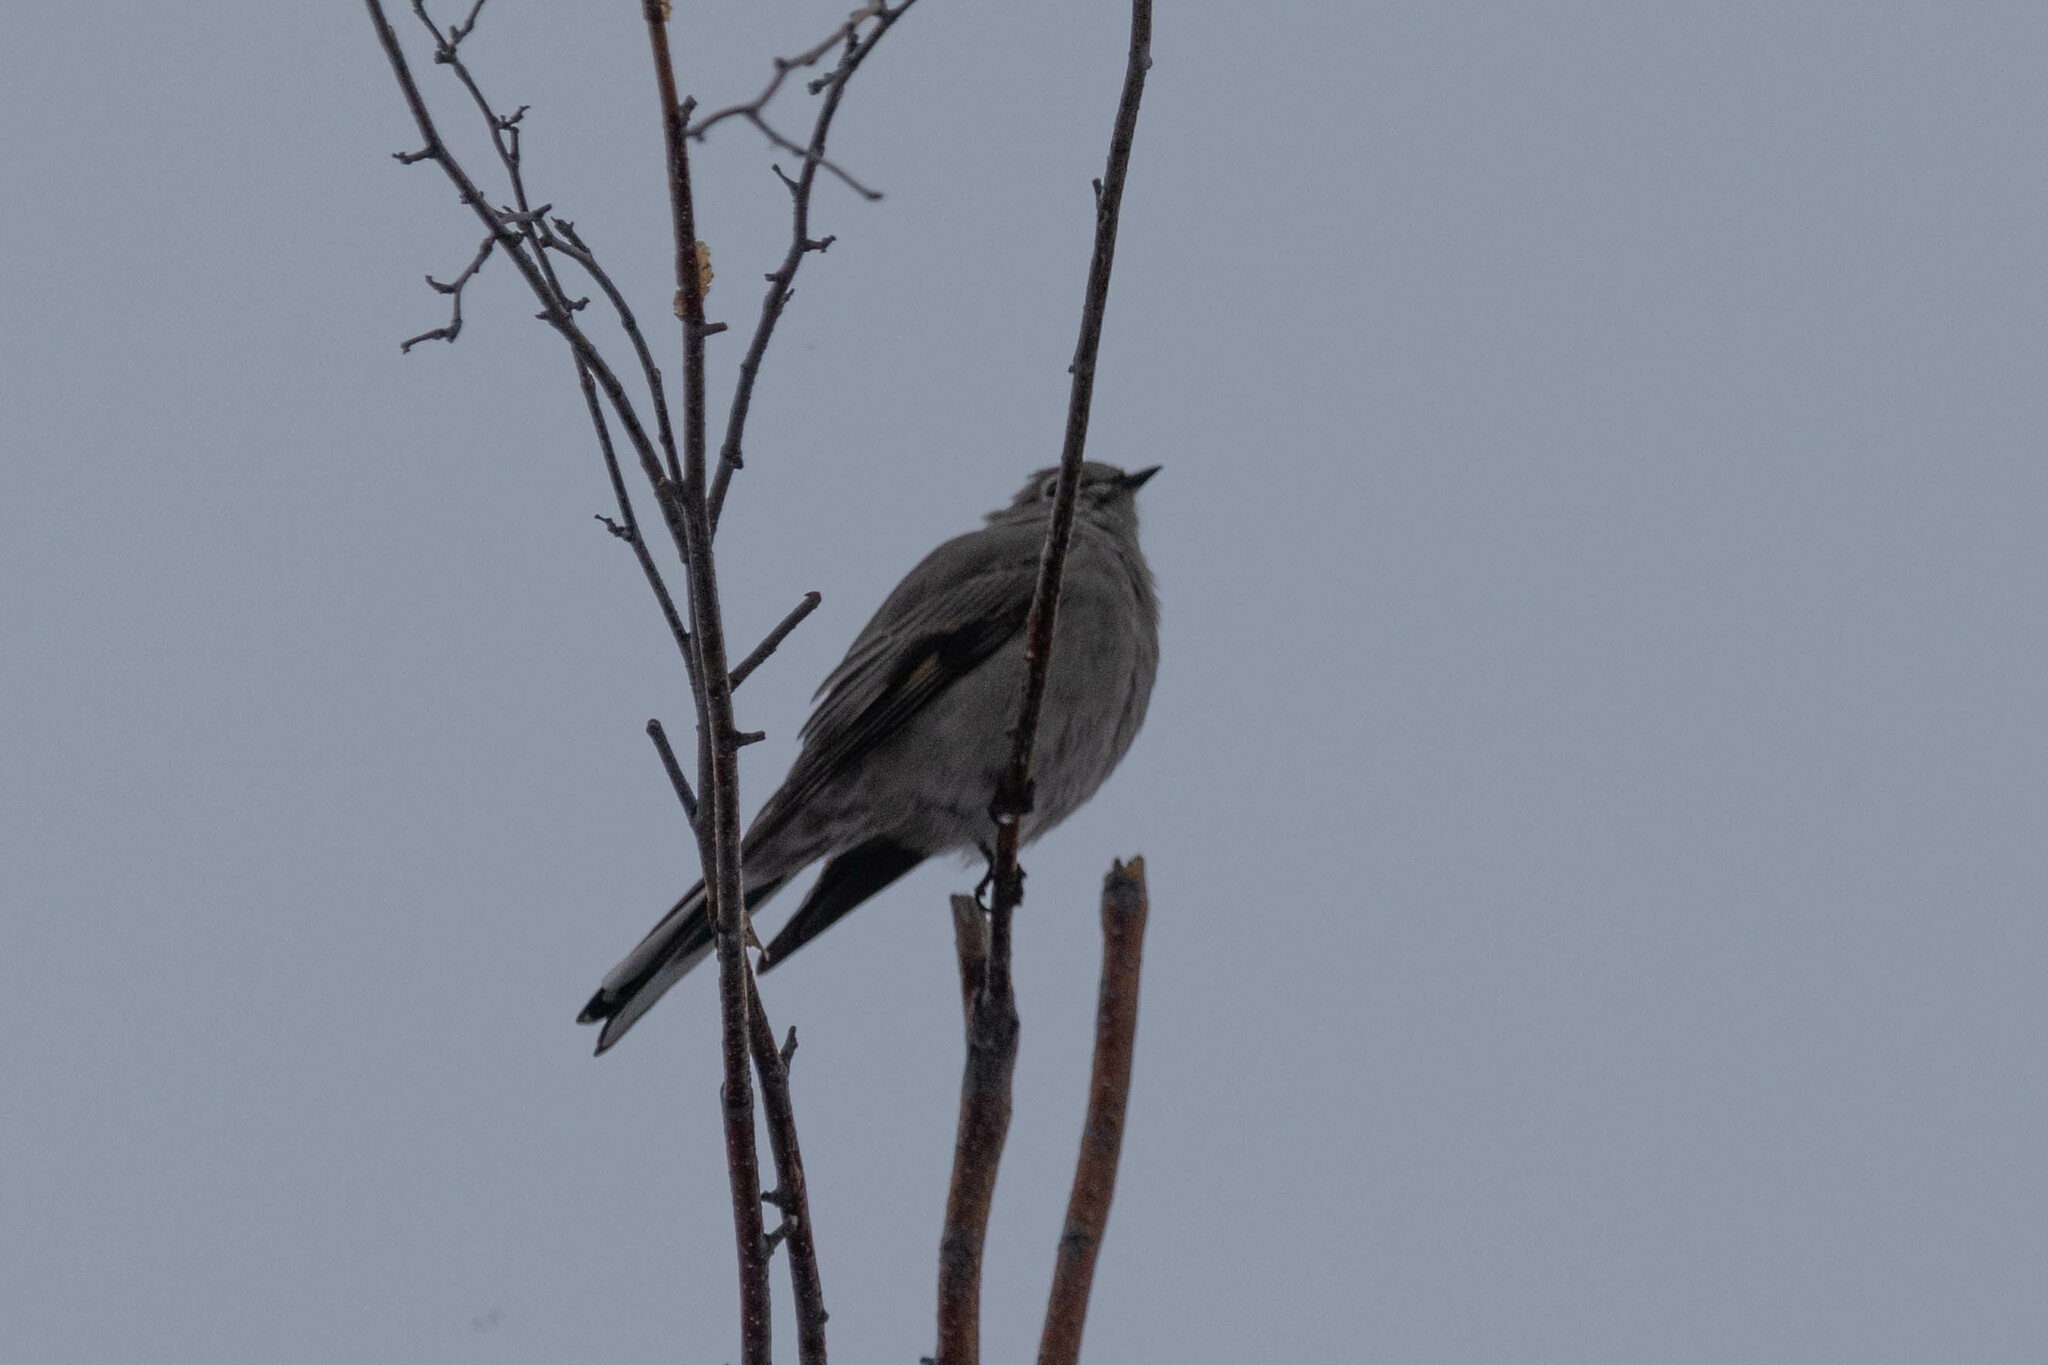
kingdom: Animalia
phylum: Chordata
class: Aves
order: Passeriformes
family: Turdidae
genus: Myadestes
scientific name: Myadestes townsendi
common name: Townsend's solitaire
